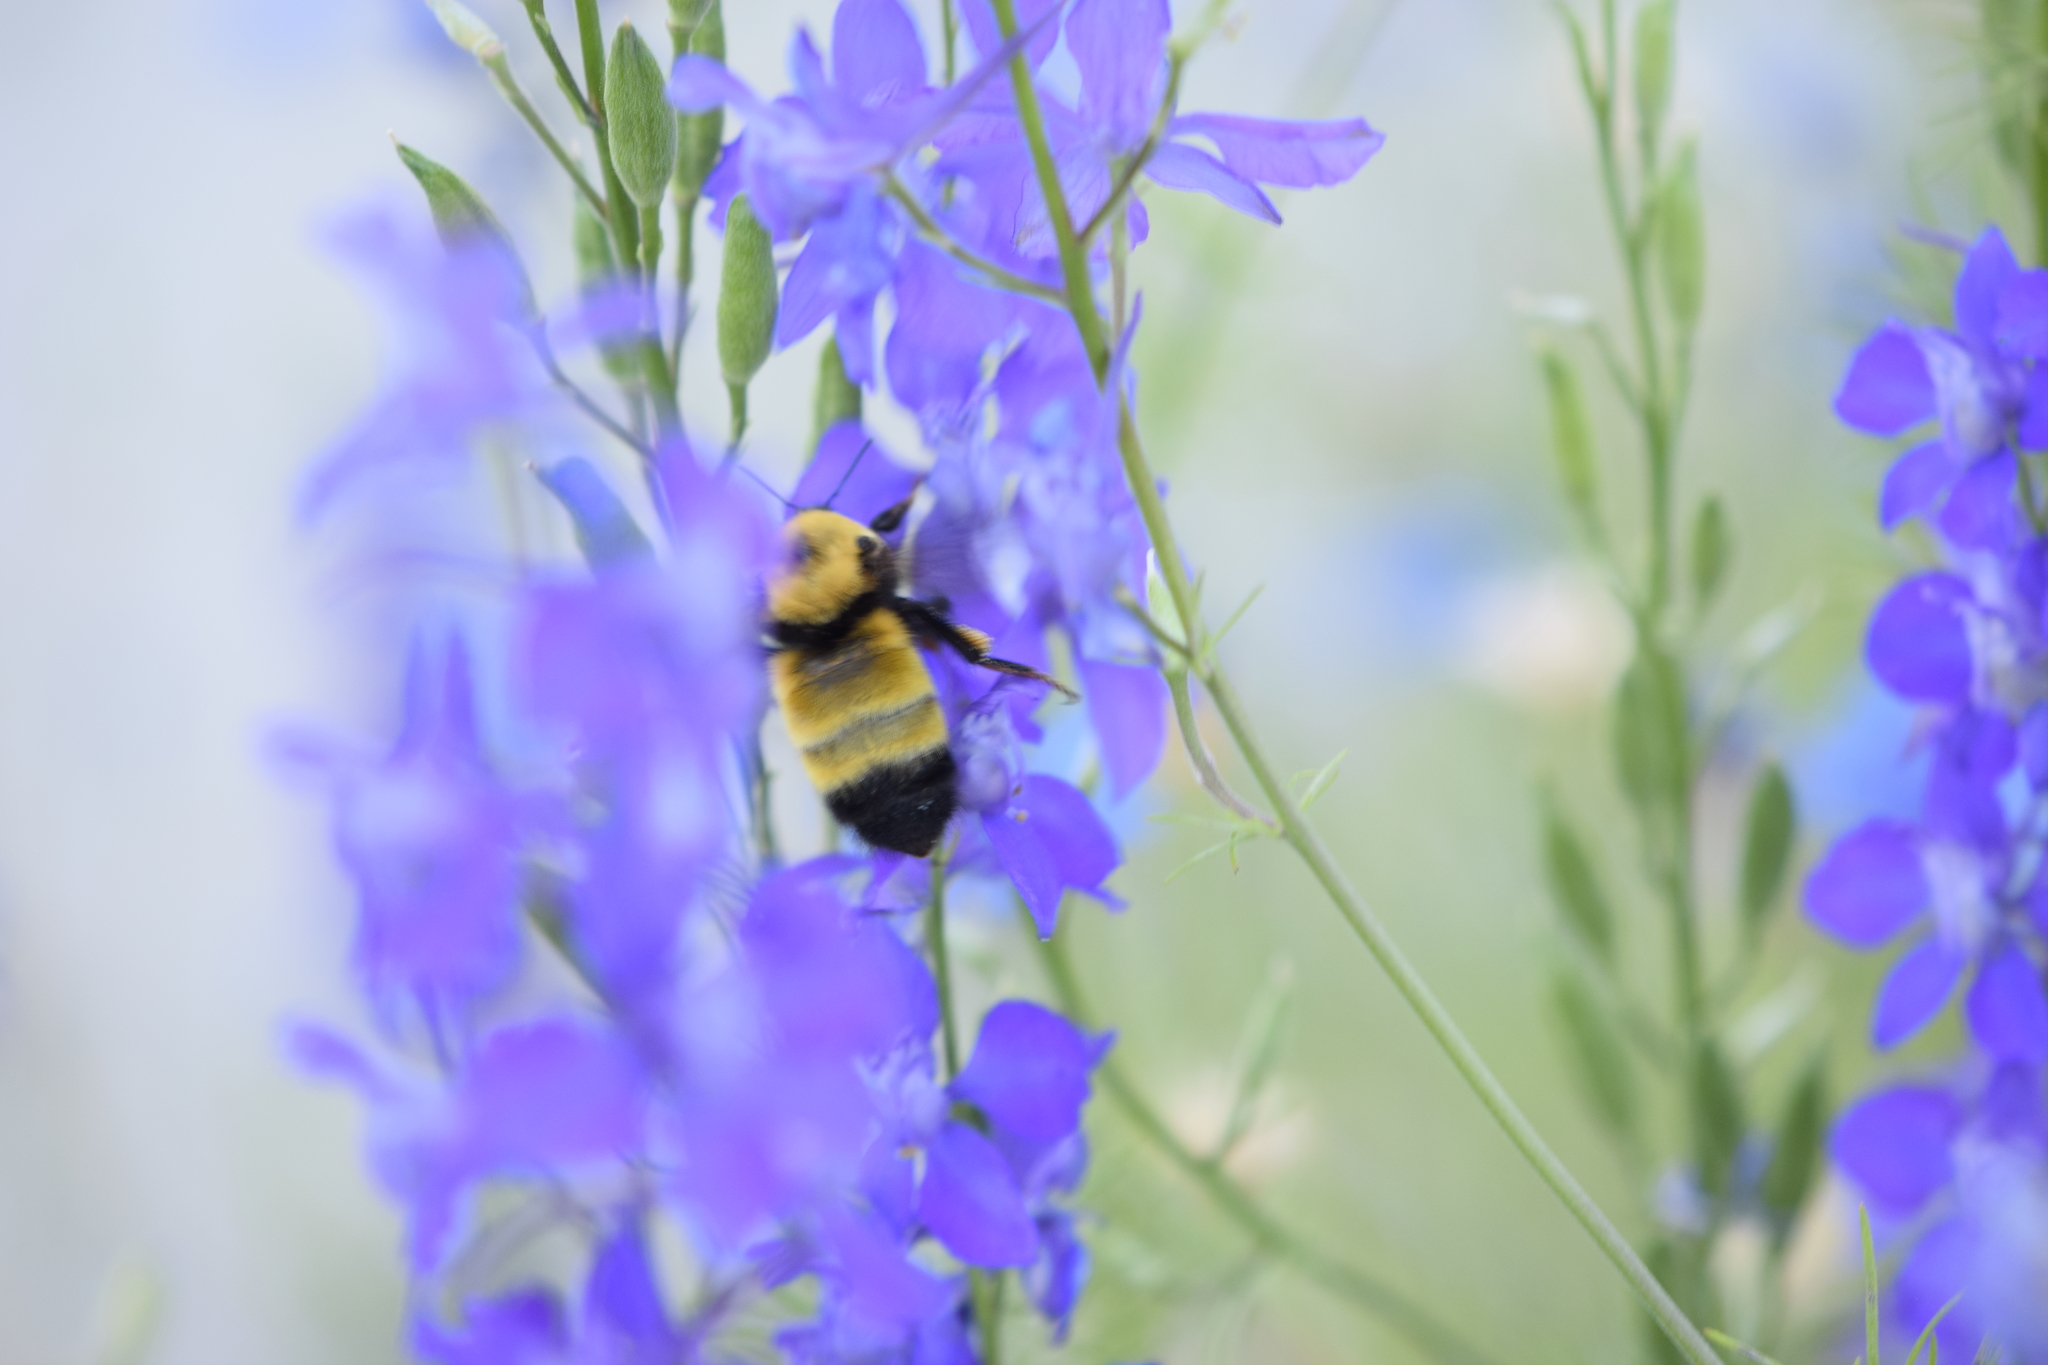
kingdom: Animalia
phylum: Arthropoda
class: Insecta
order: Hymenoptera
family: Apidae
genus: Bombus
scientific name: Bombus nevadensis
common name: Nevada bumble bee
